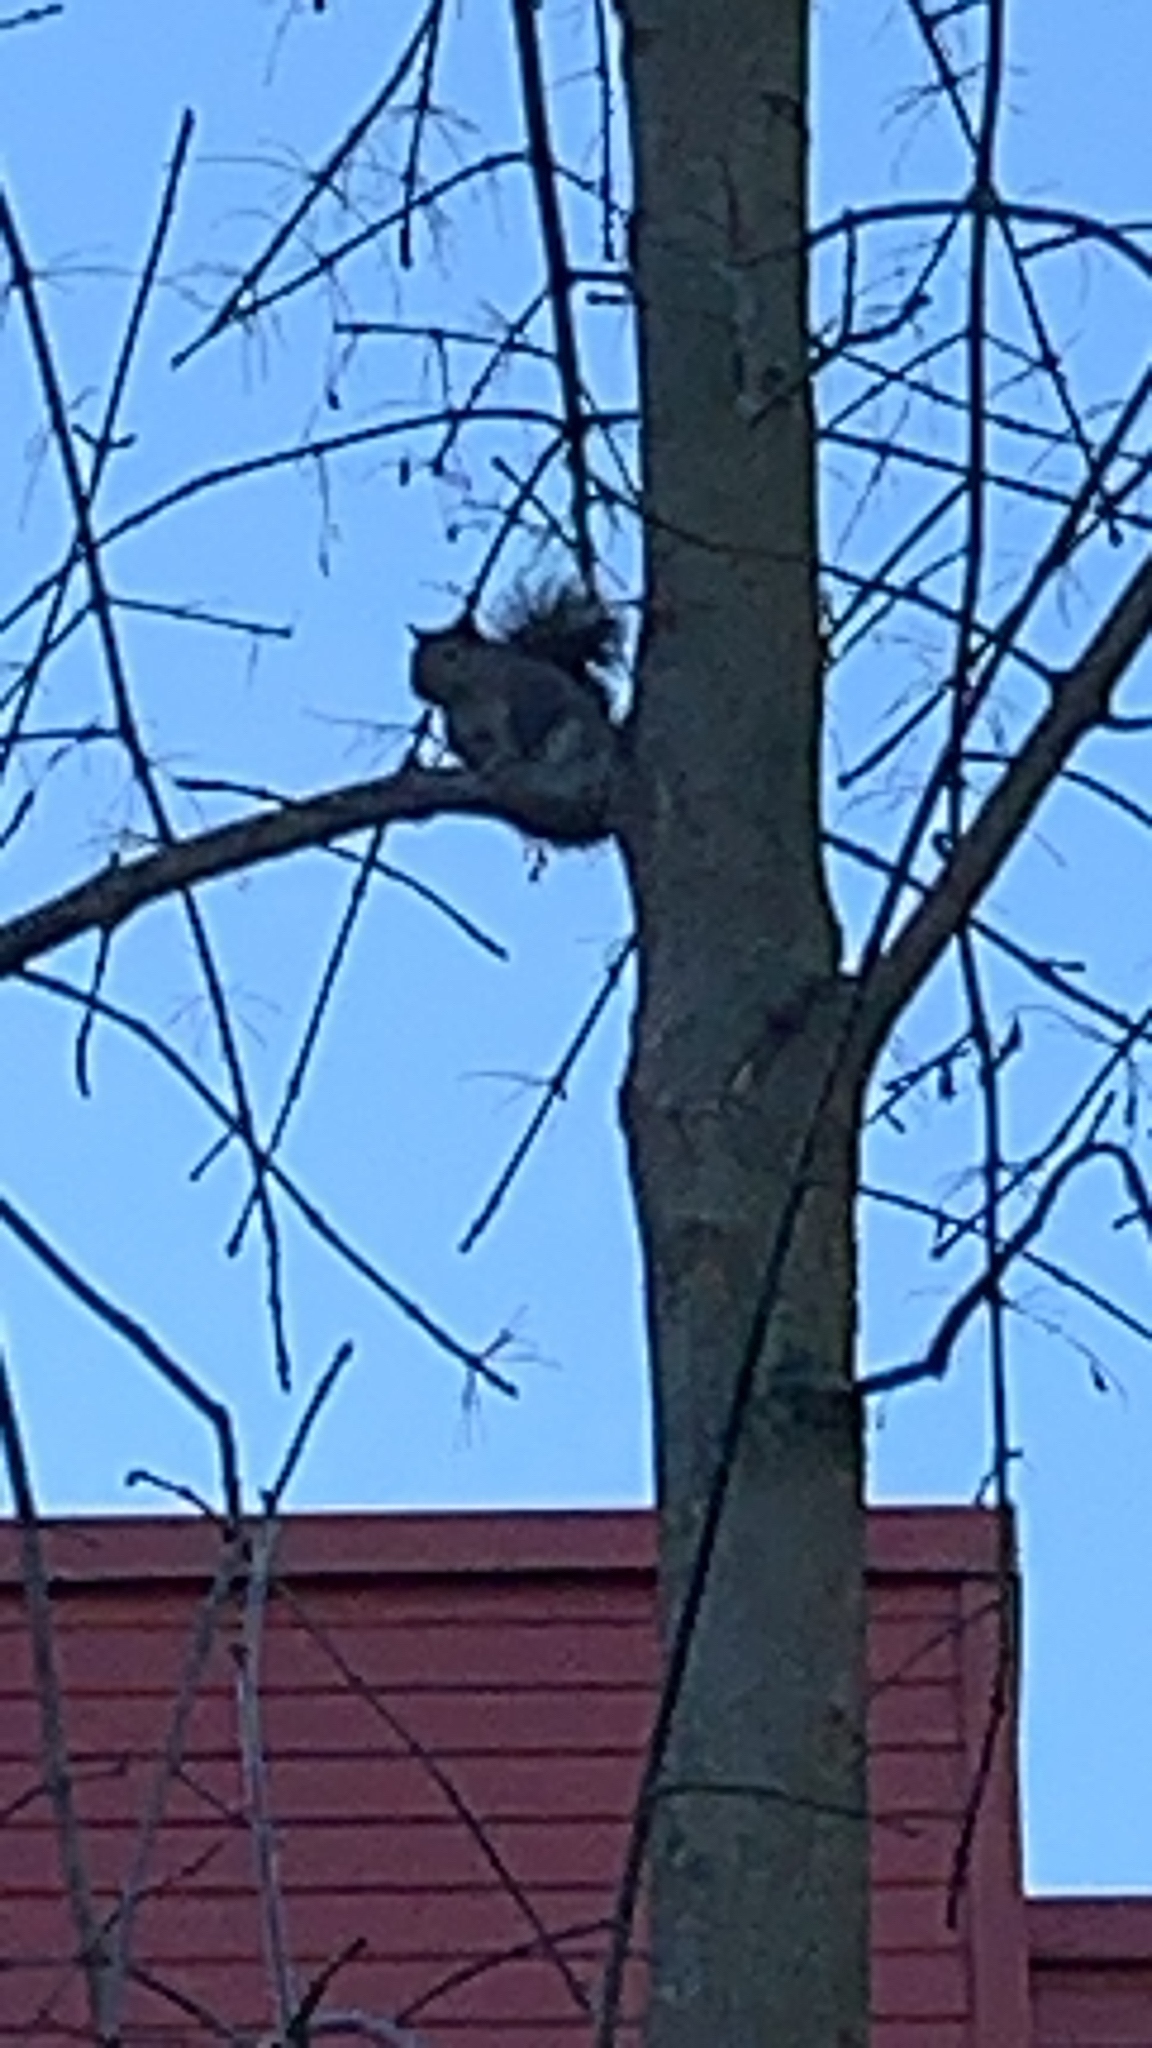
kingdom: Animalia
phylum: Chordata
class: Mammalia
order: Rodentia
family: Sciuridae
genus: Sciurus
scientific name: Sciurus carolinensis
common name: Eastern gray squirrel
